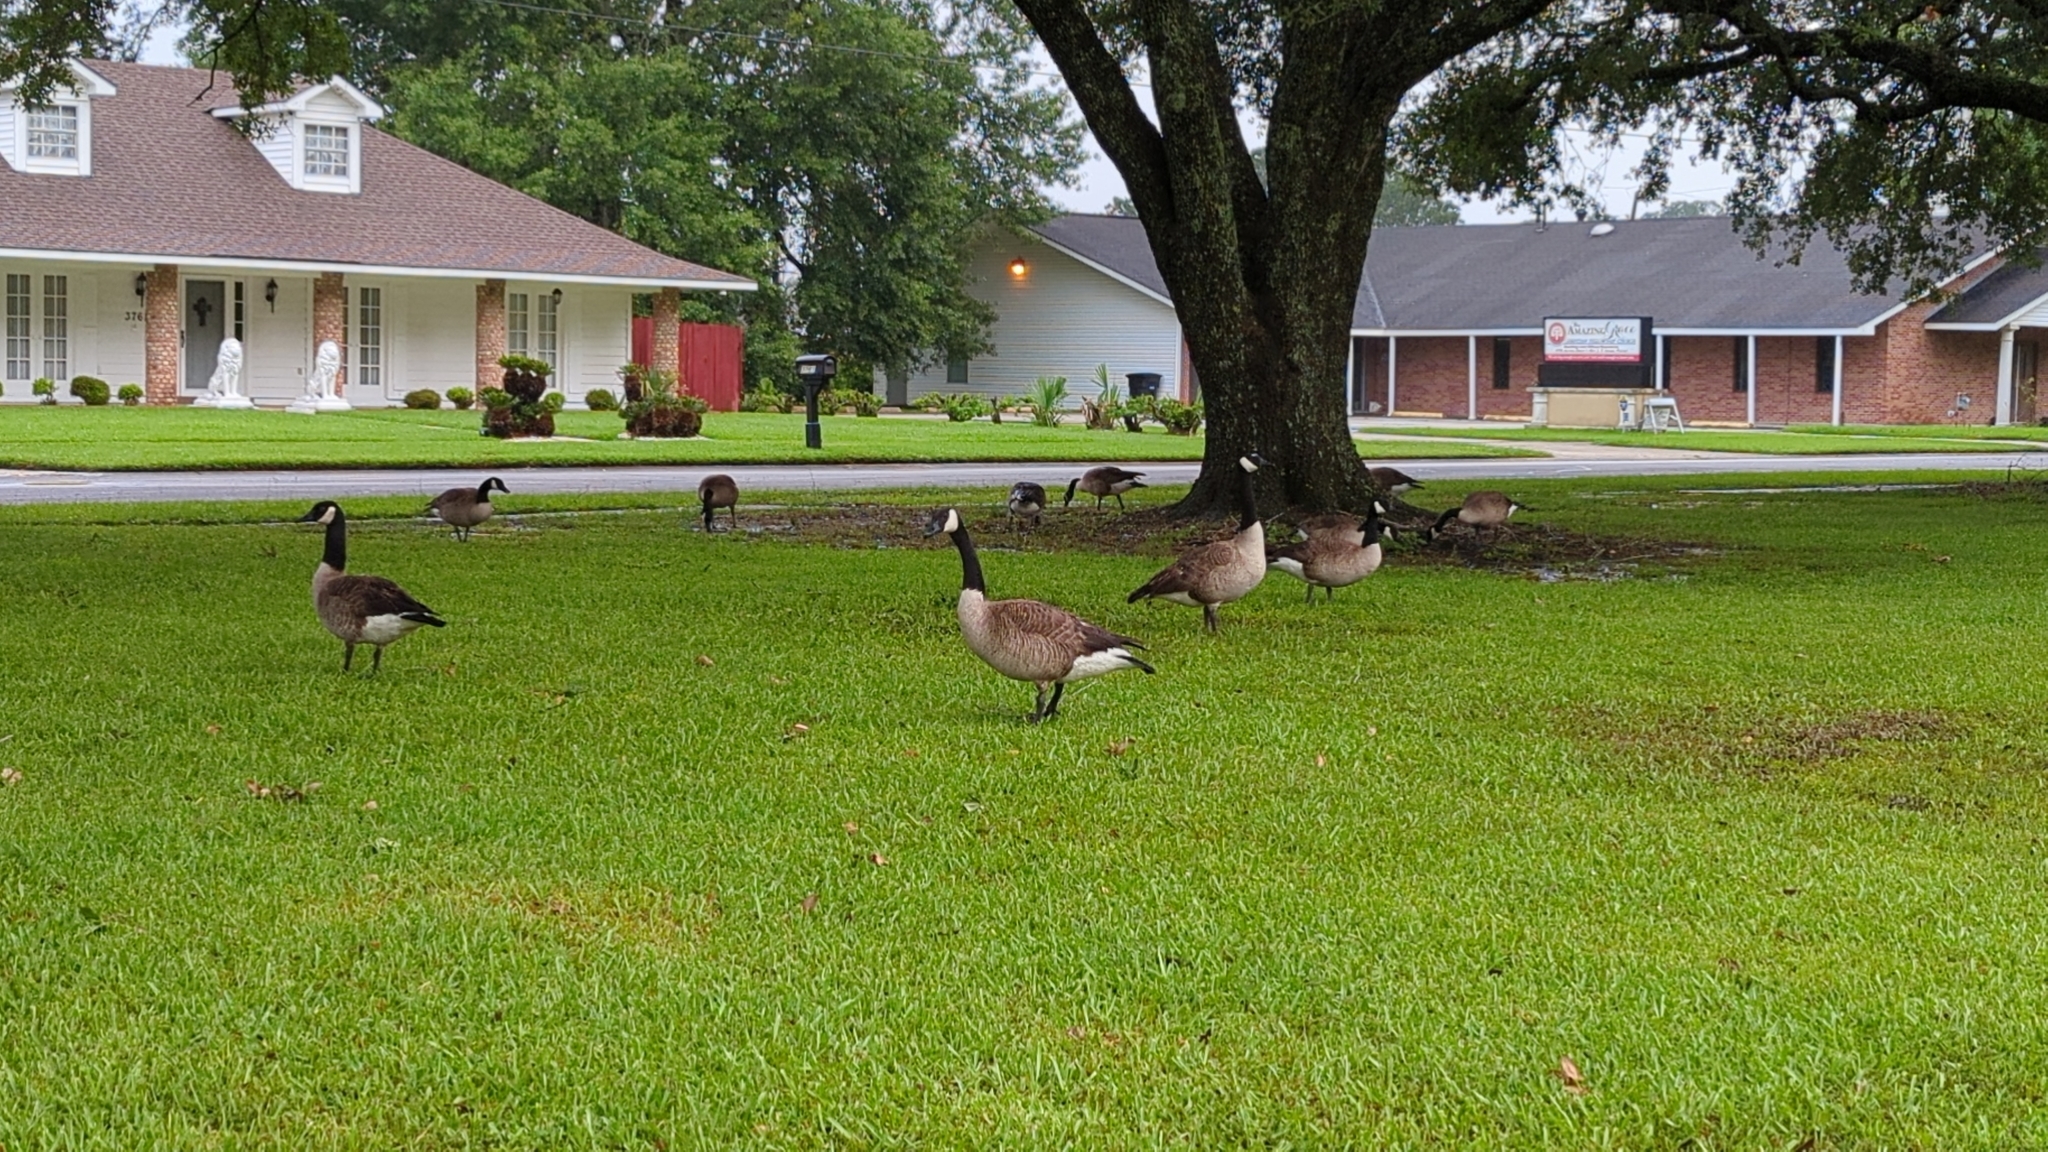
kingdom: Animalia
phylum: Chordata
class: Aves
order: Anseriformes
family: Anatidae
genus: Branta
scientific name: Branta canadensis
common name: Canada goose
